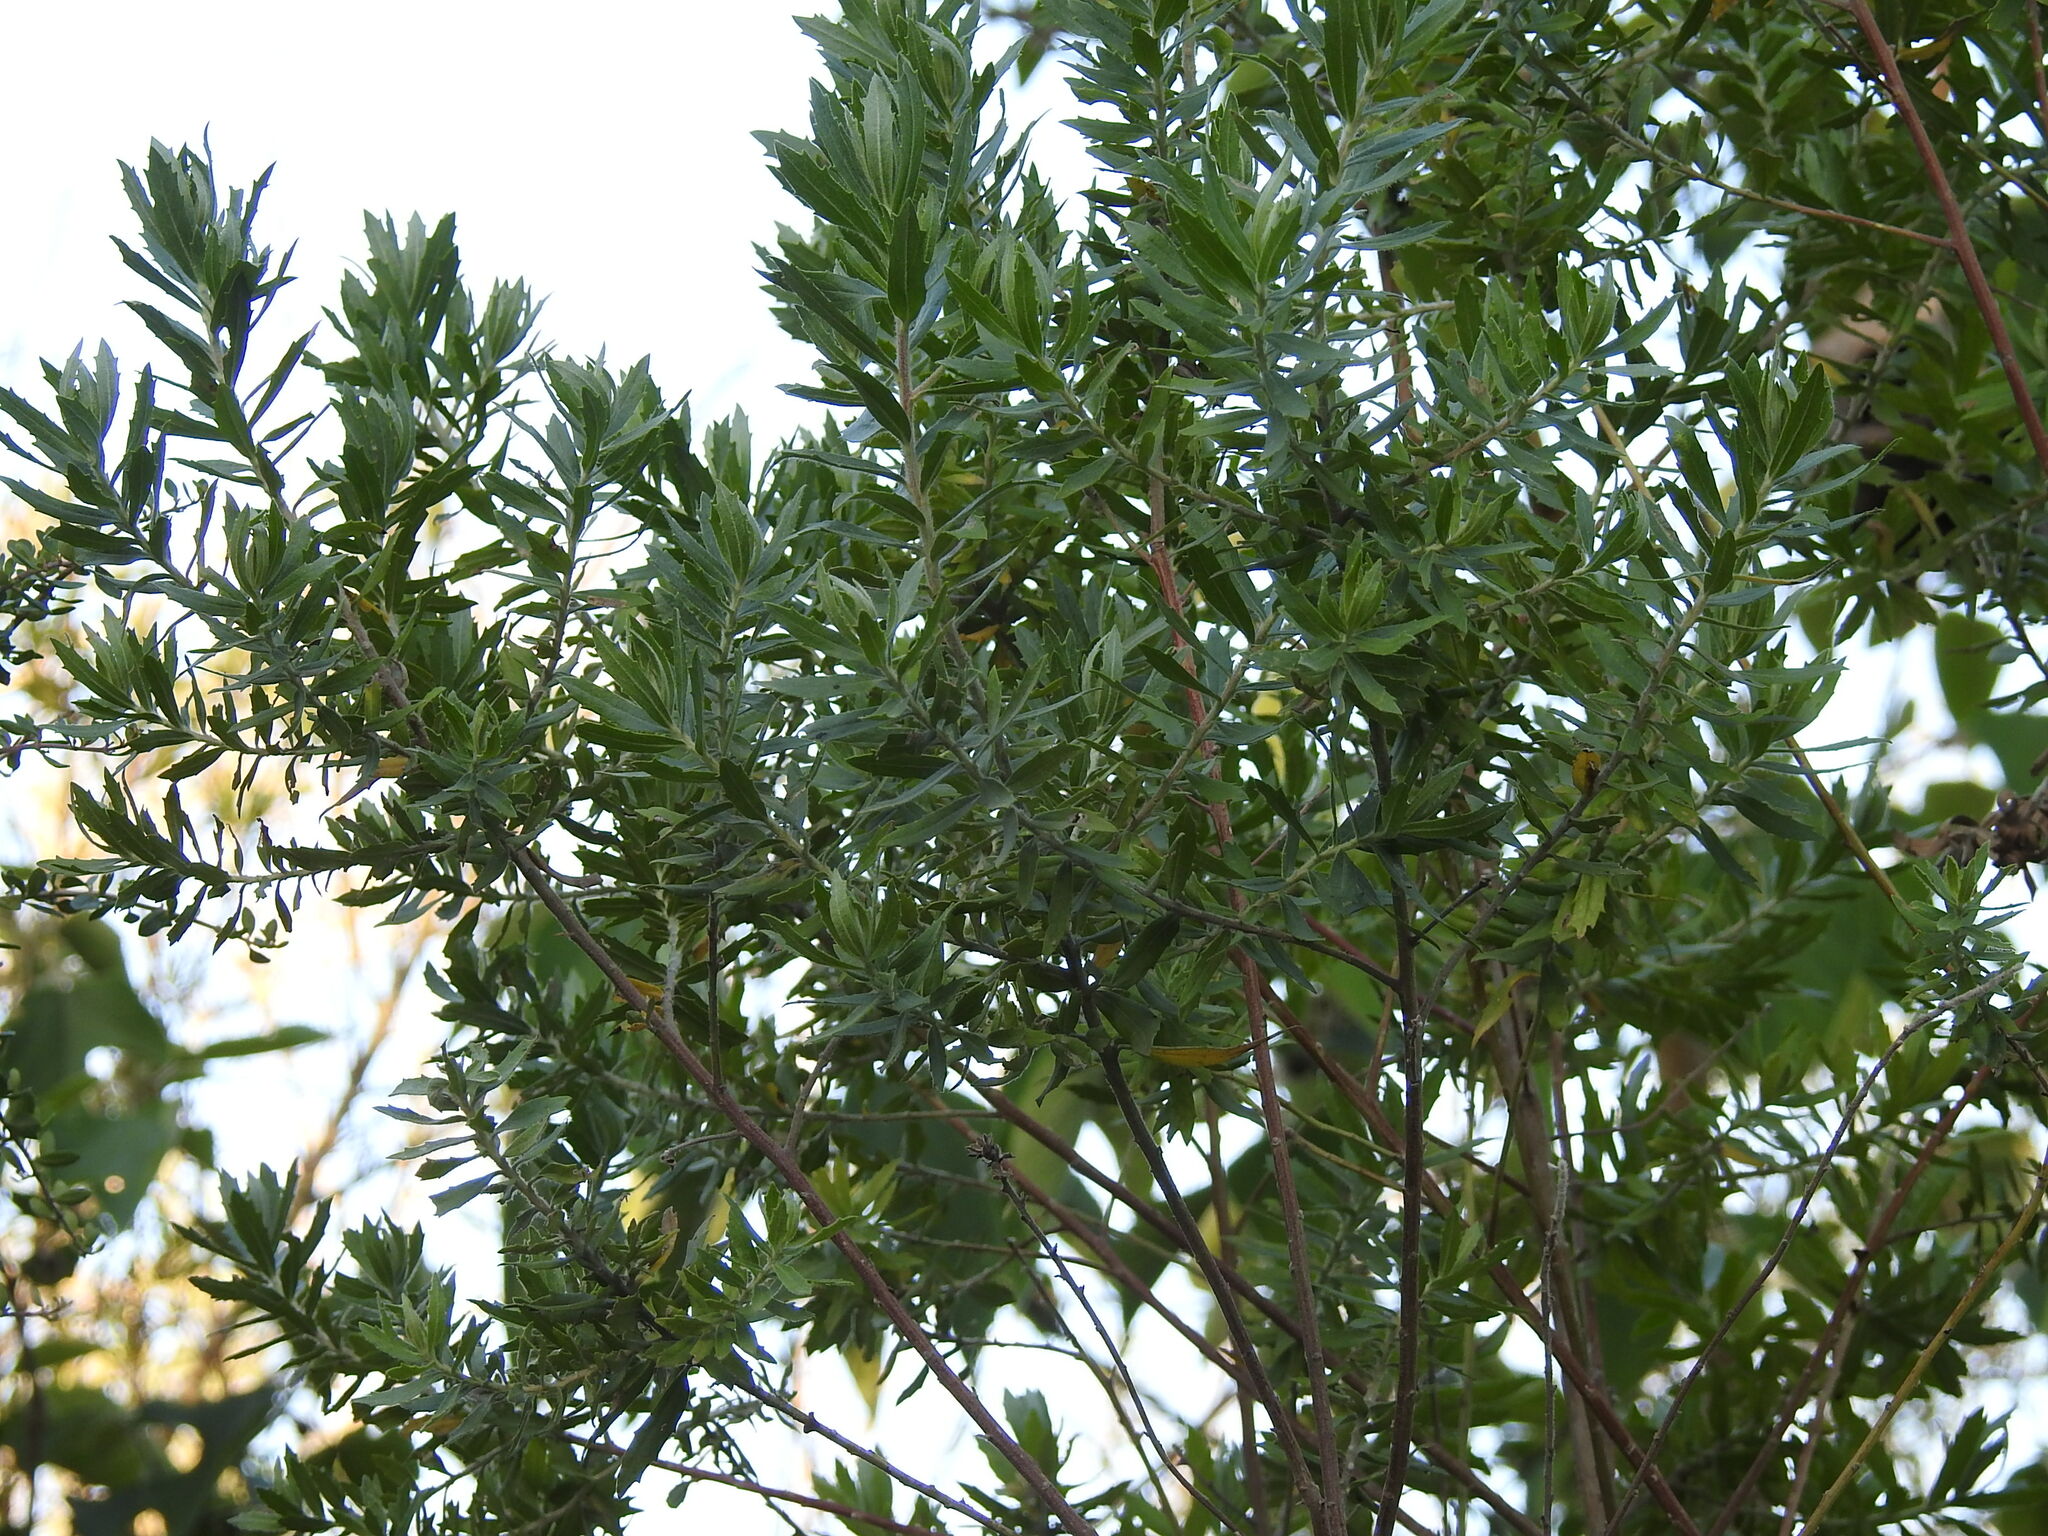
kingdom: Plantae
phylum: Tracheophyta
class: Magnoliopsida
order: Asterales
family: Asteraceae
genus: Baccharis
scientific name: Baccharis dracunculifolia
